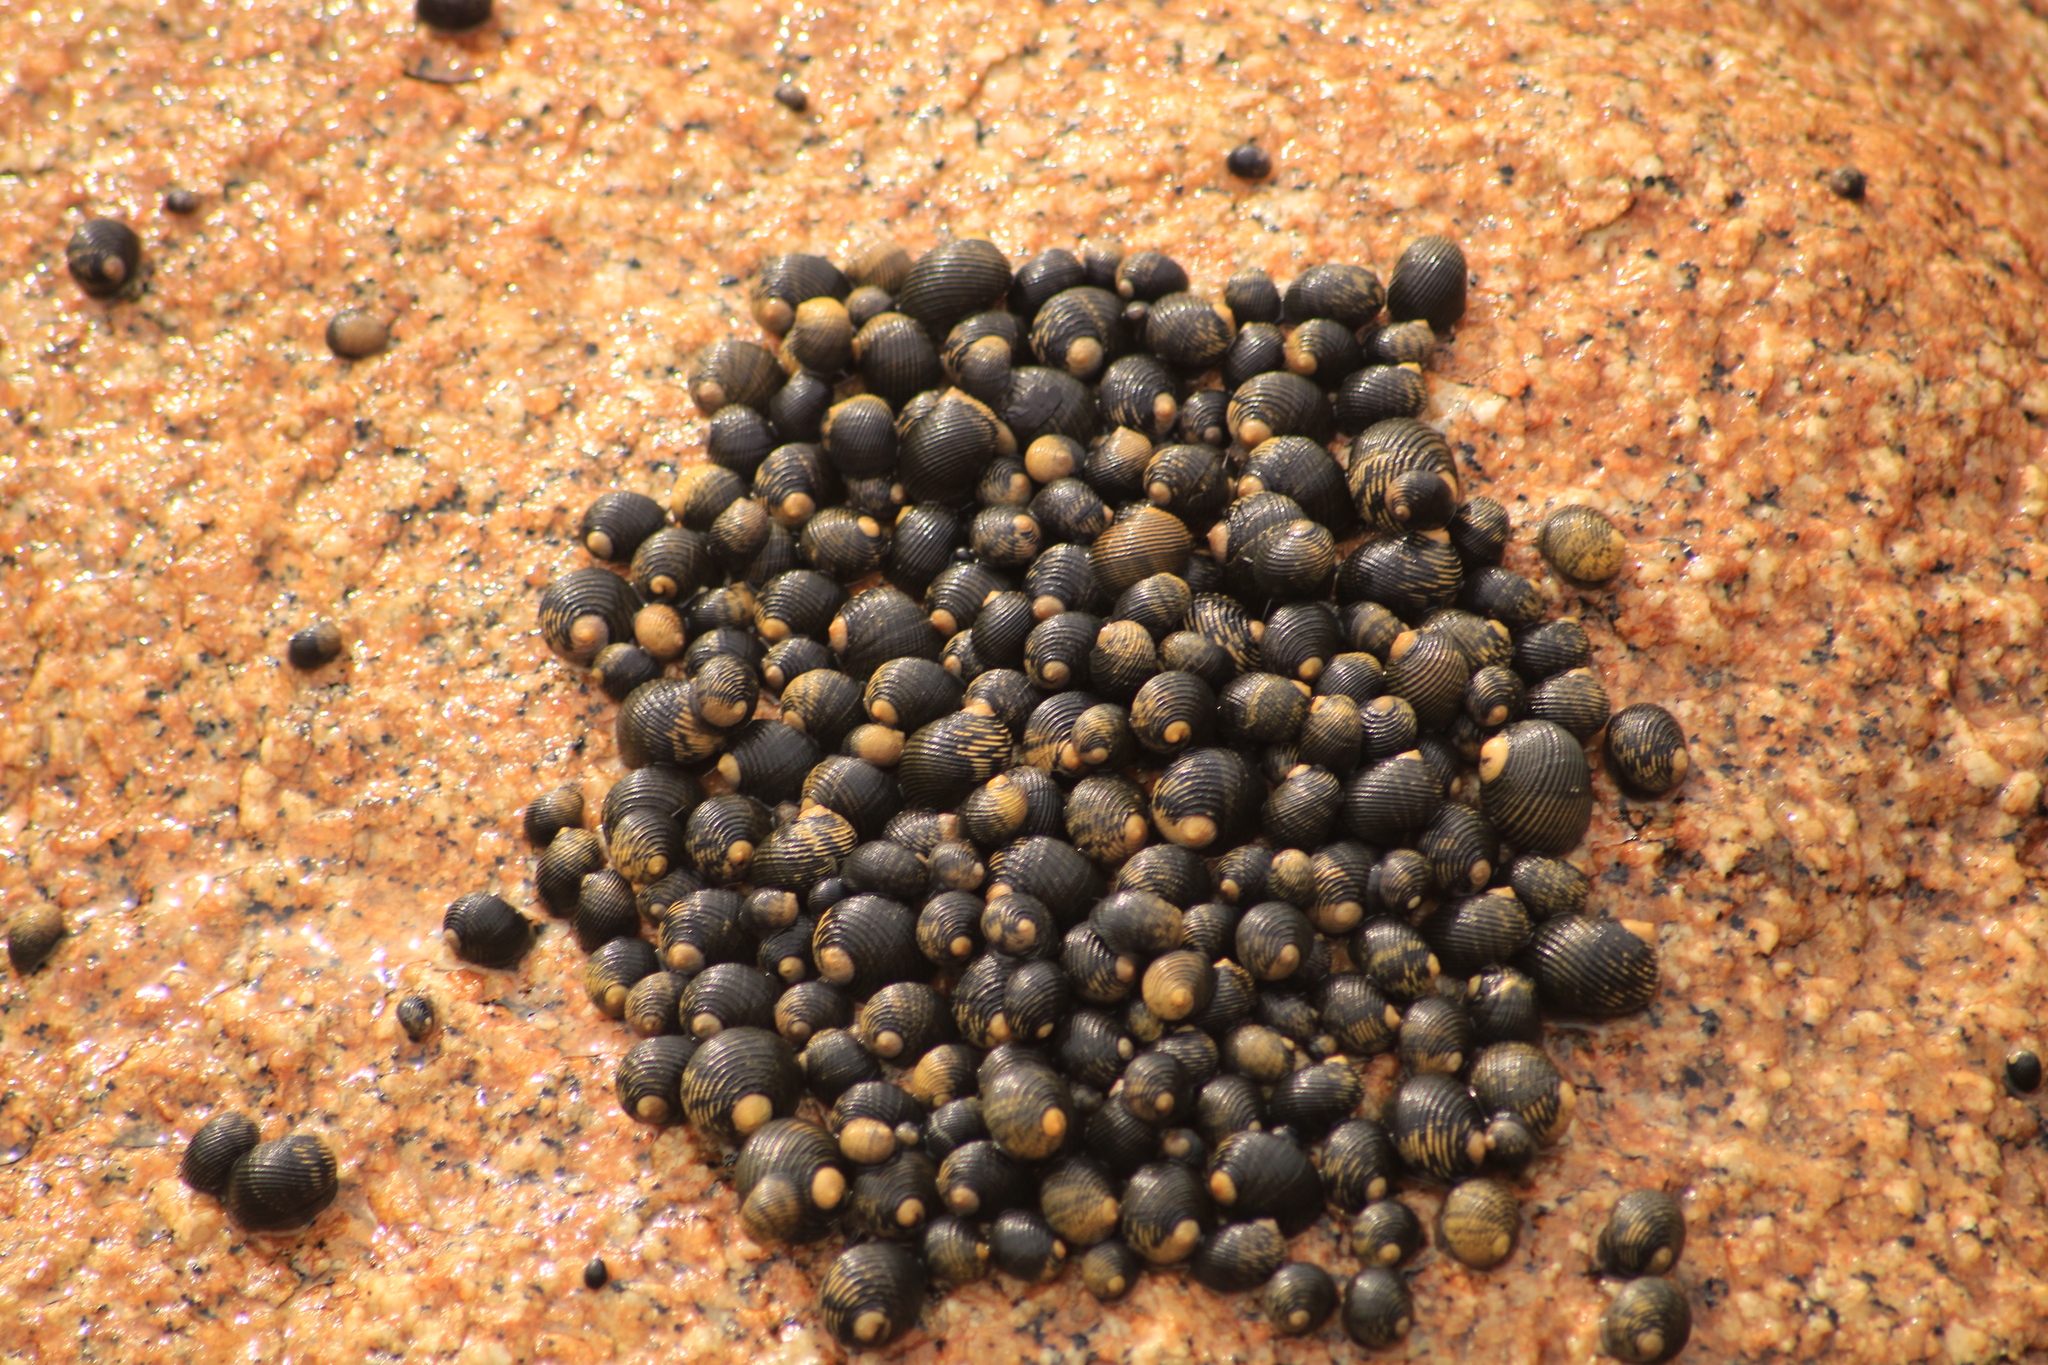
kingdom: Animalia
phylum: Mollusca
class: Gastropoda
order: Cycloneritida
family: Neritidae
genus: Nerita
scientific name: Nerita scabricosta
